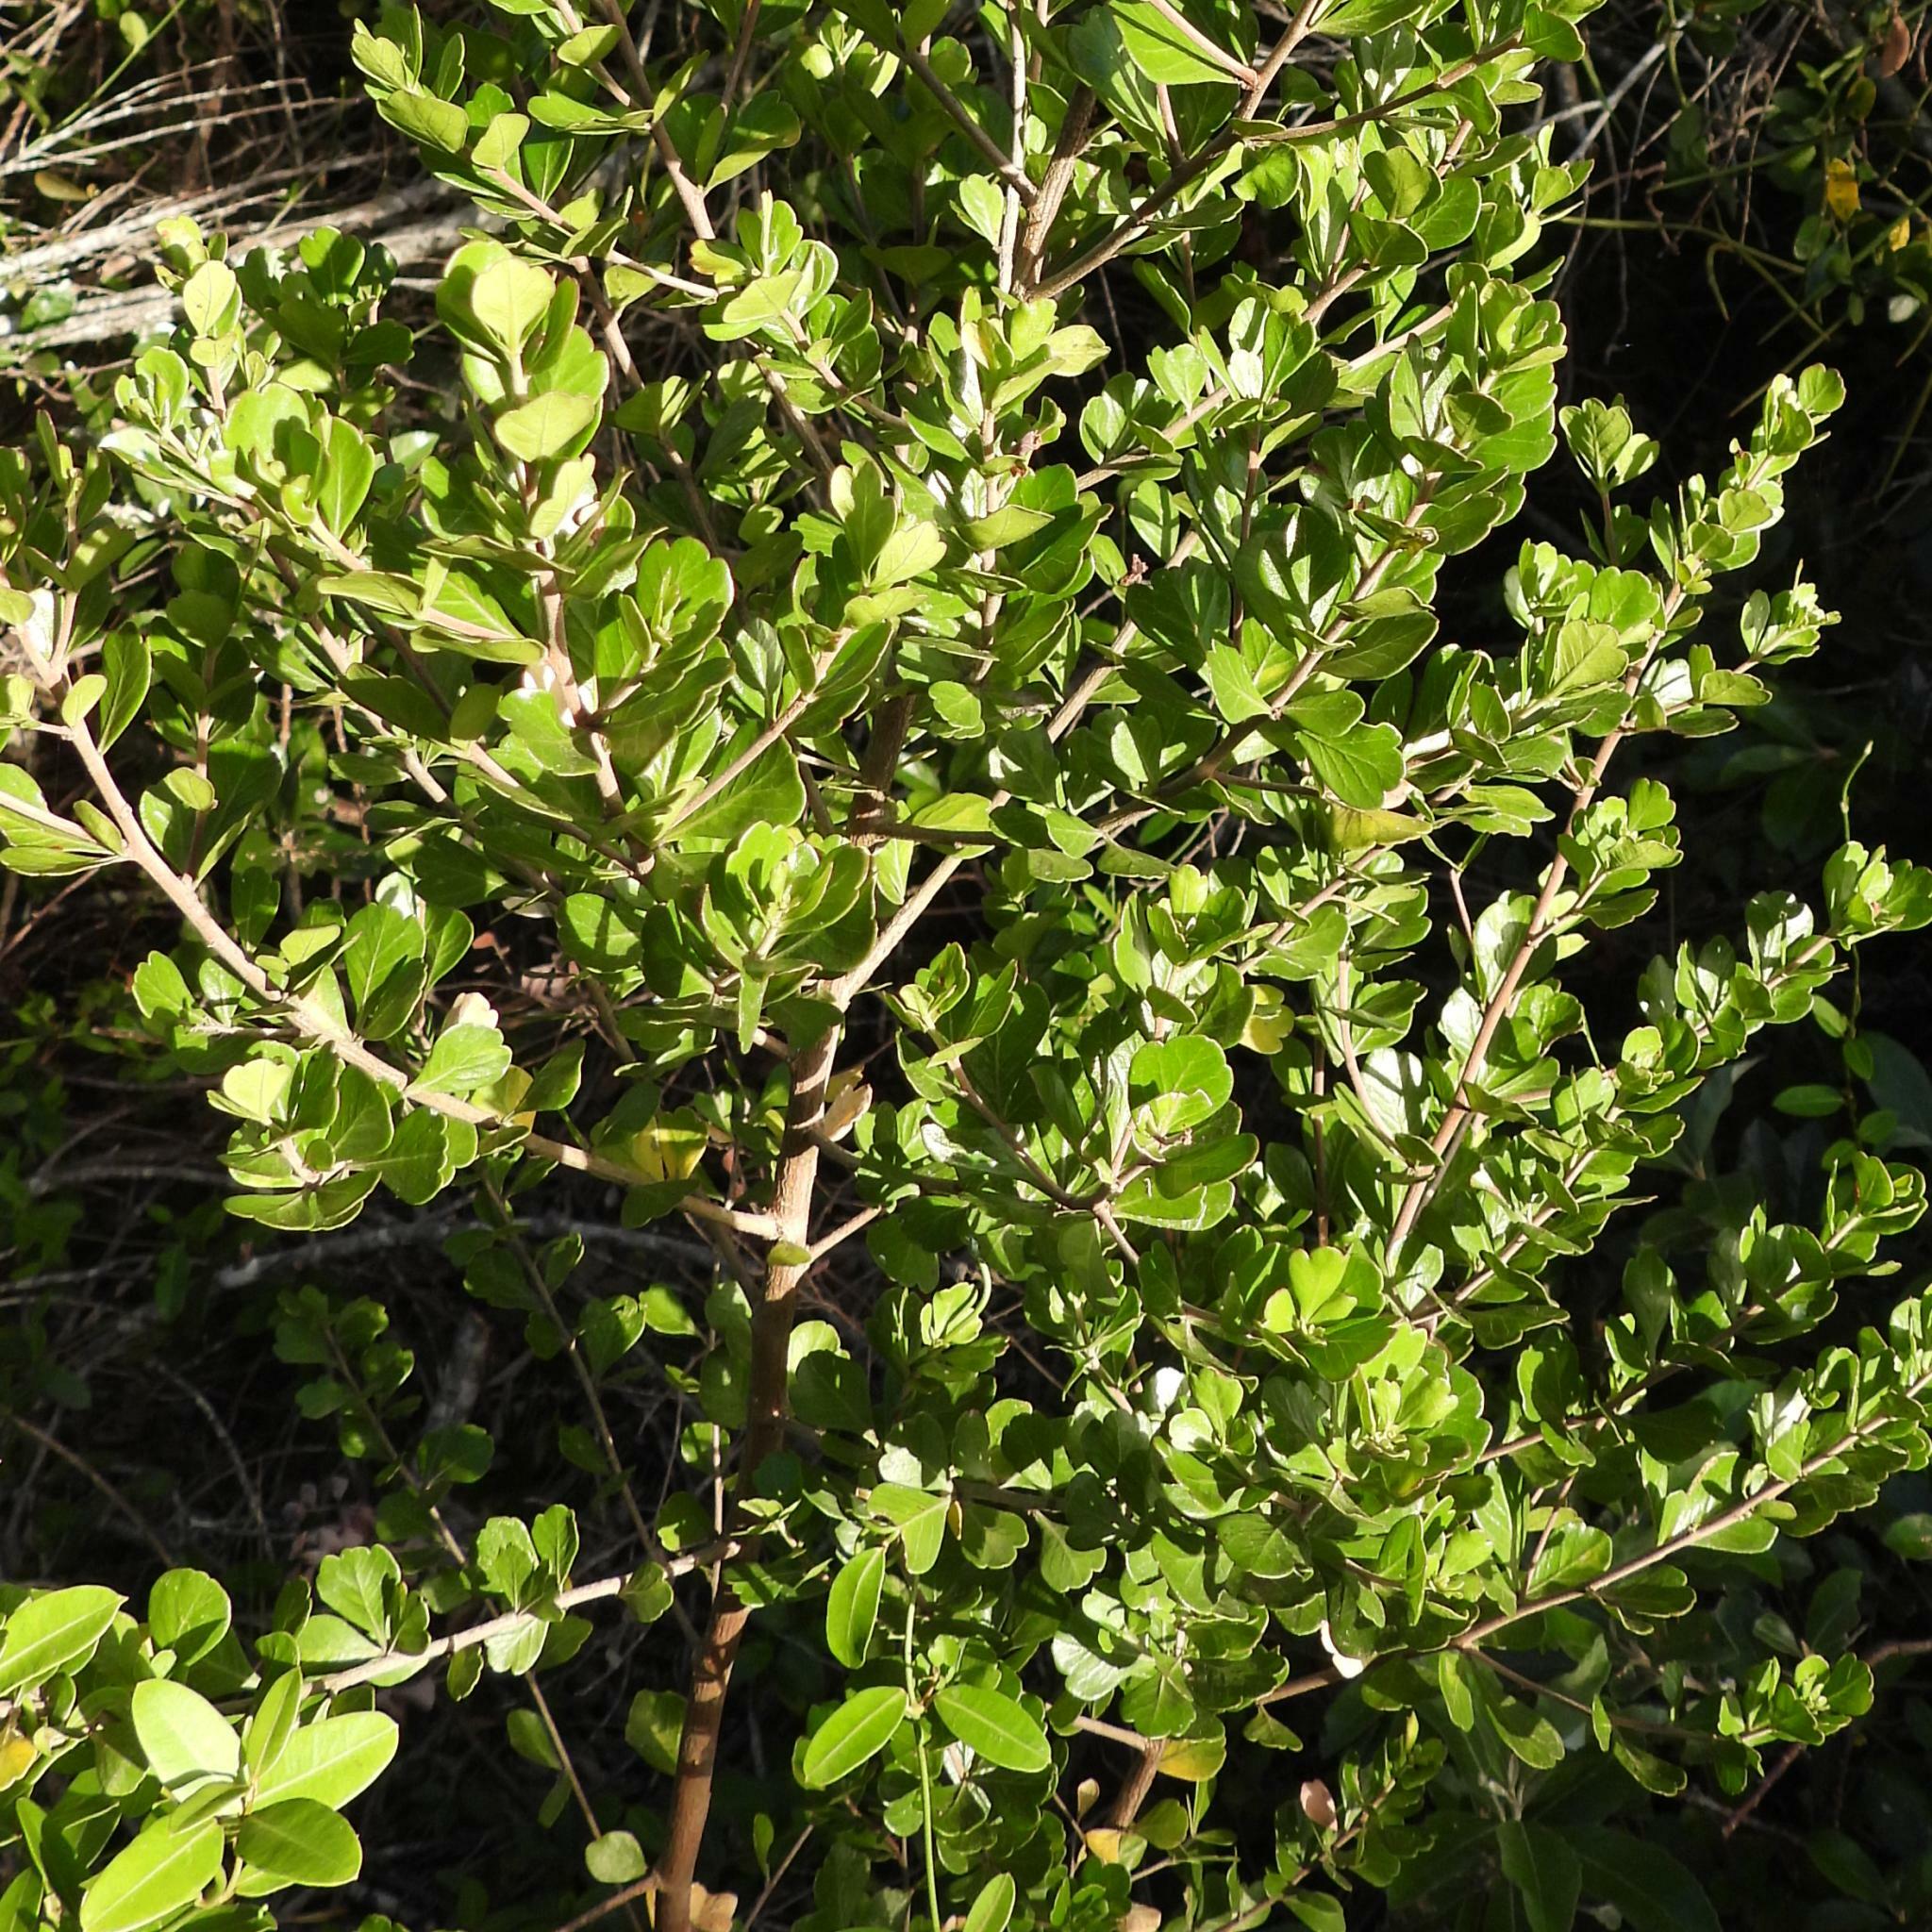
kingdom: Plantae
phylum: Tracheophyta
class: Magnoliopsida
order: Sapindales
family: Anacardiaceae
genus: Searsia
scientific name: Searsia crenata
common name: Crowberry
